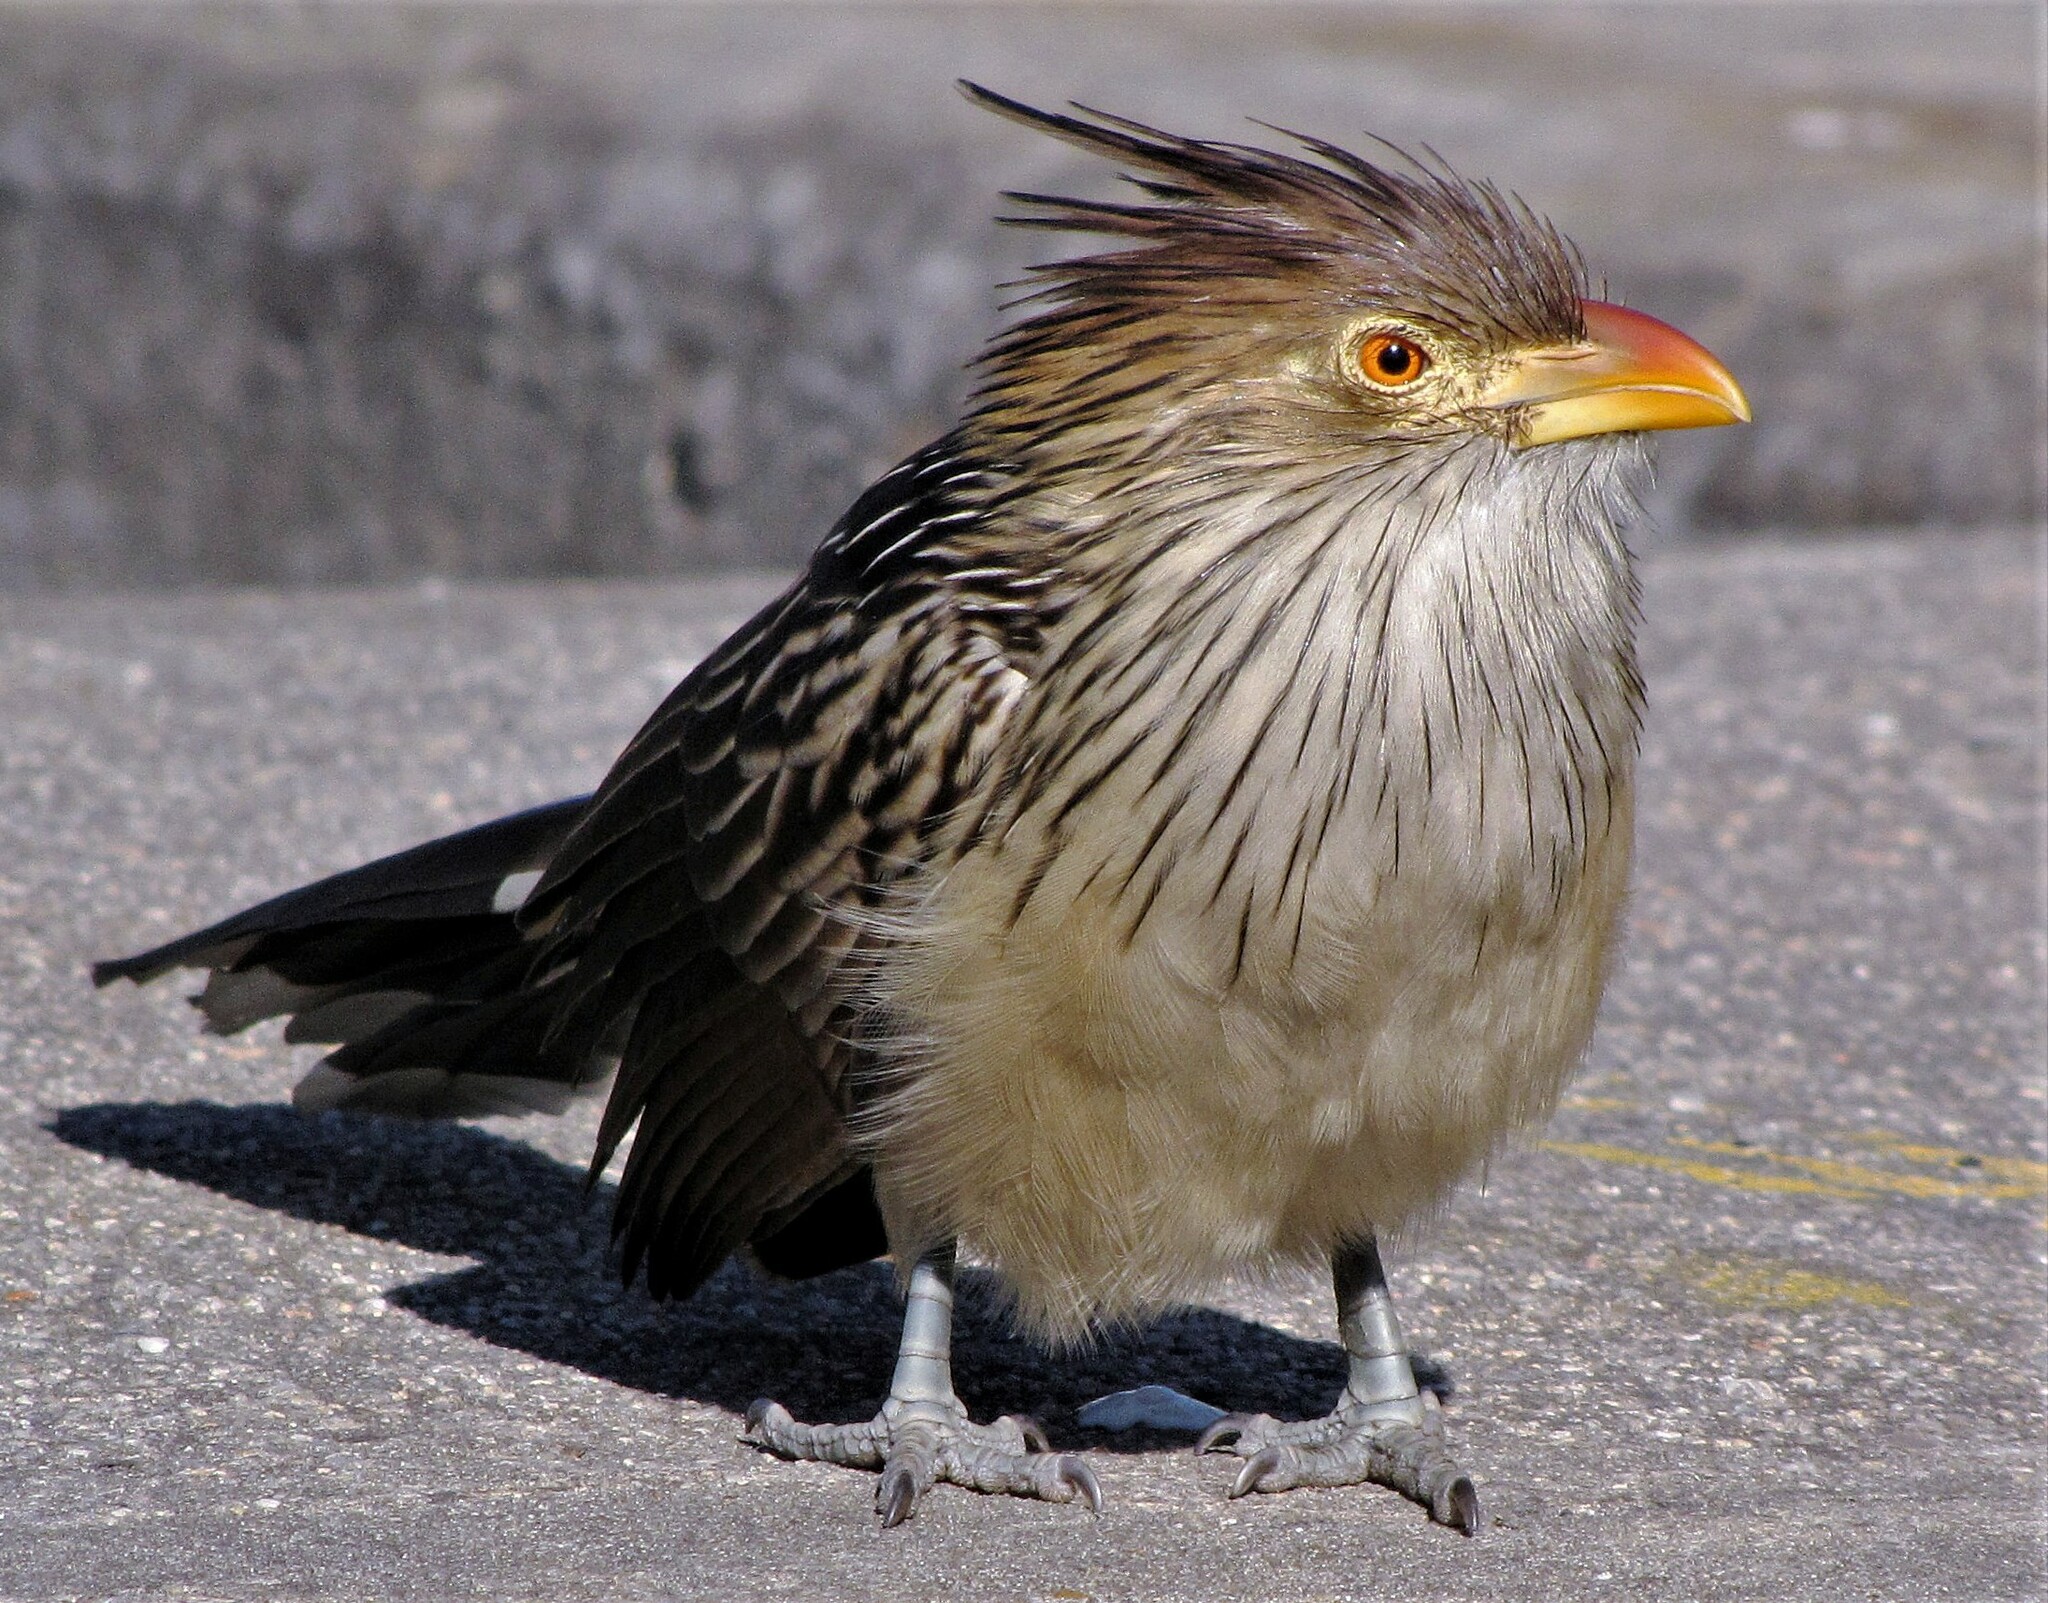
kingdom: Animalia
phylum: Chordata
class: Aves
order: Cuculiformes
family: Cuculidae
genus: Guira
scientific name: Guira guira
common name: Guira cuckoo
